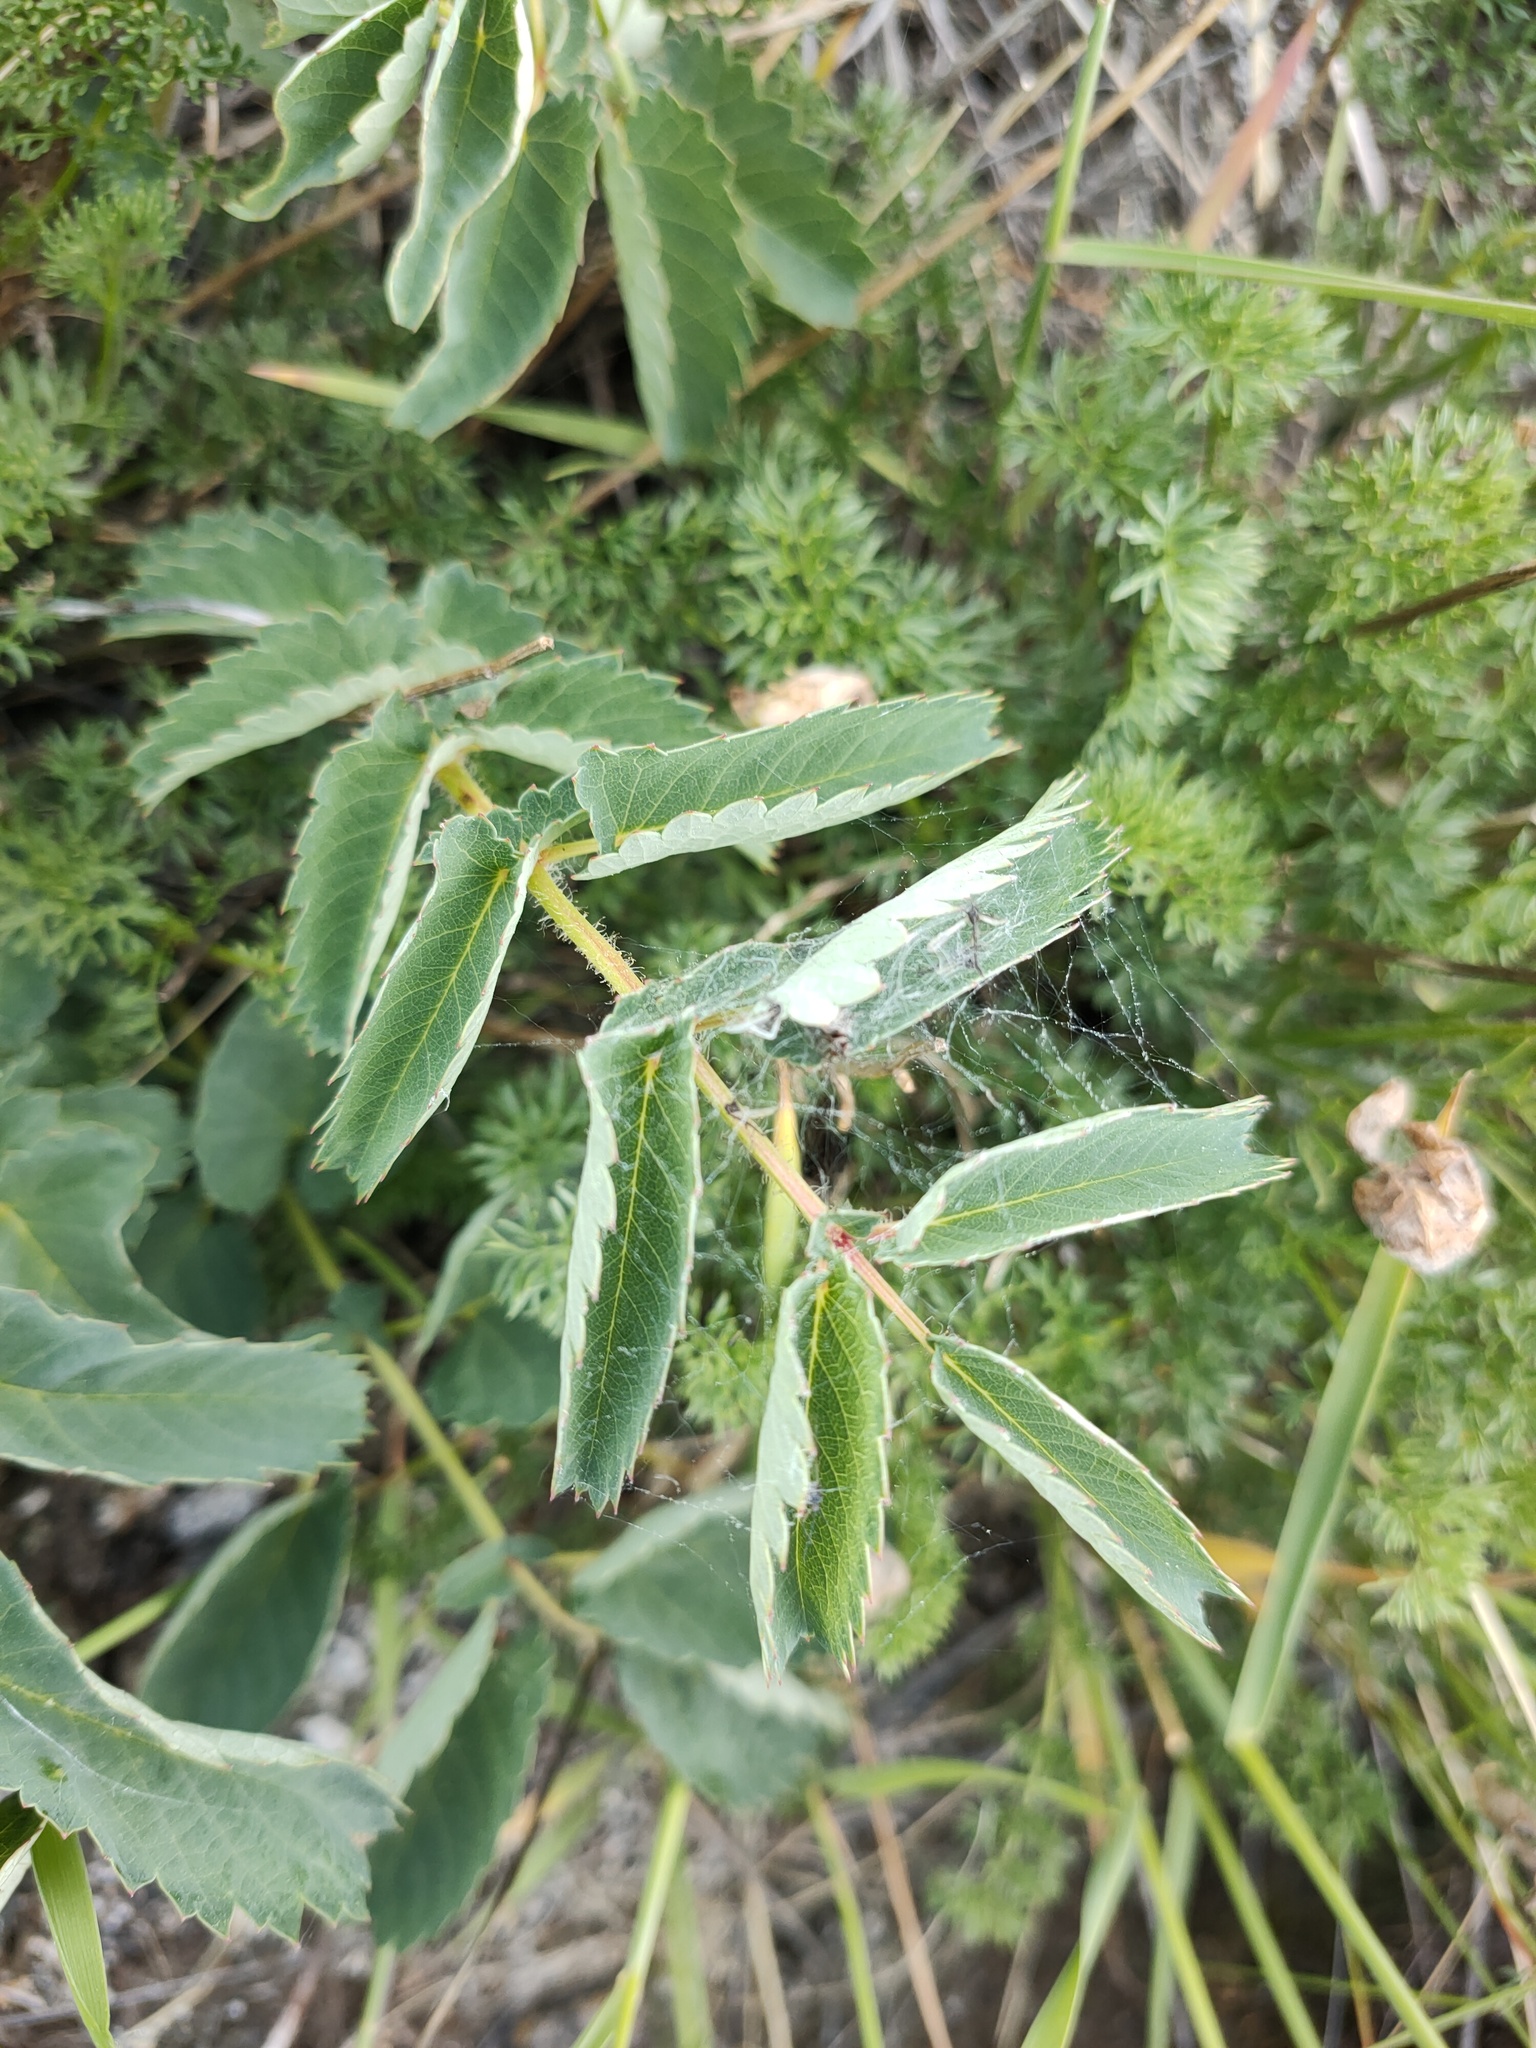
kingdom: Plantae
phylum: Tracheophyta
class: Magnoliopsida
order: Rosales
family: Rosaceae
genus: Sanguisorba
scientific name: Sanguisorba officinalis
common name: Great burnet
